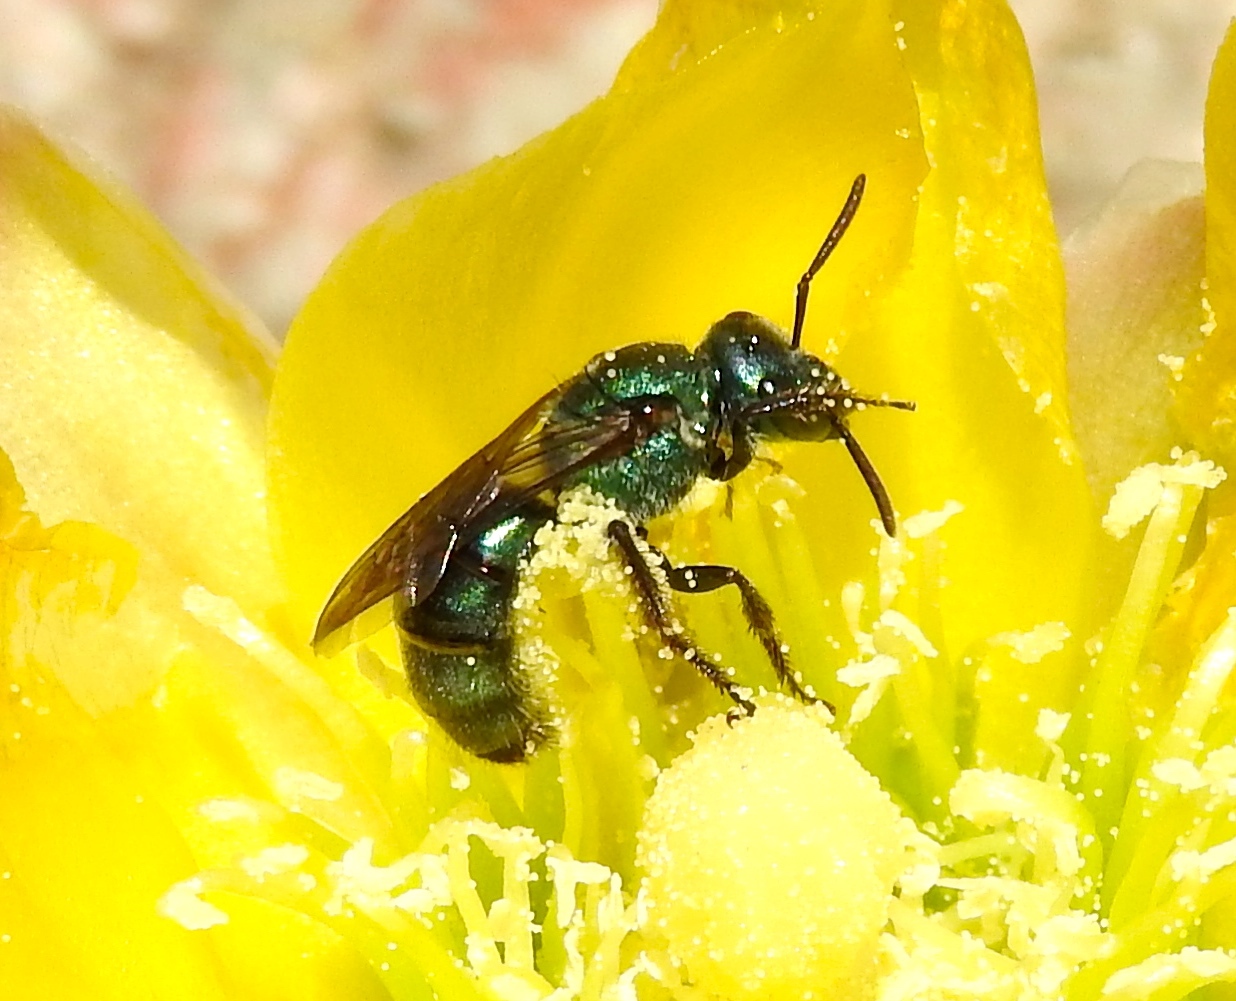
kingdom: Animalia
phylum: Arthropoda
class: Insecta
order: Hymenoptera
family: Halictidae
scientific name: Halictidae
